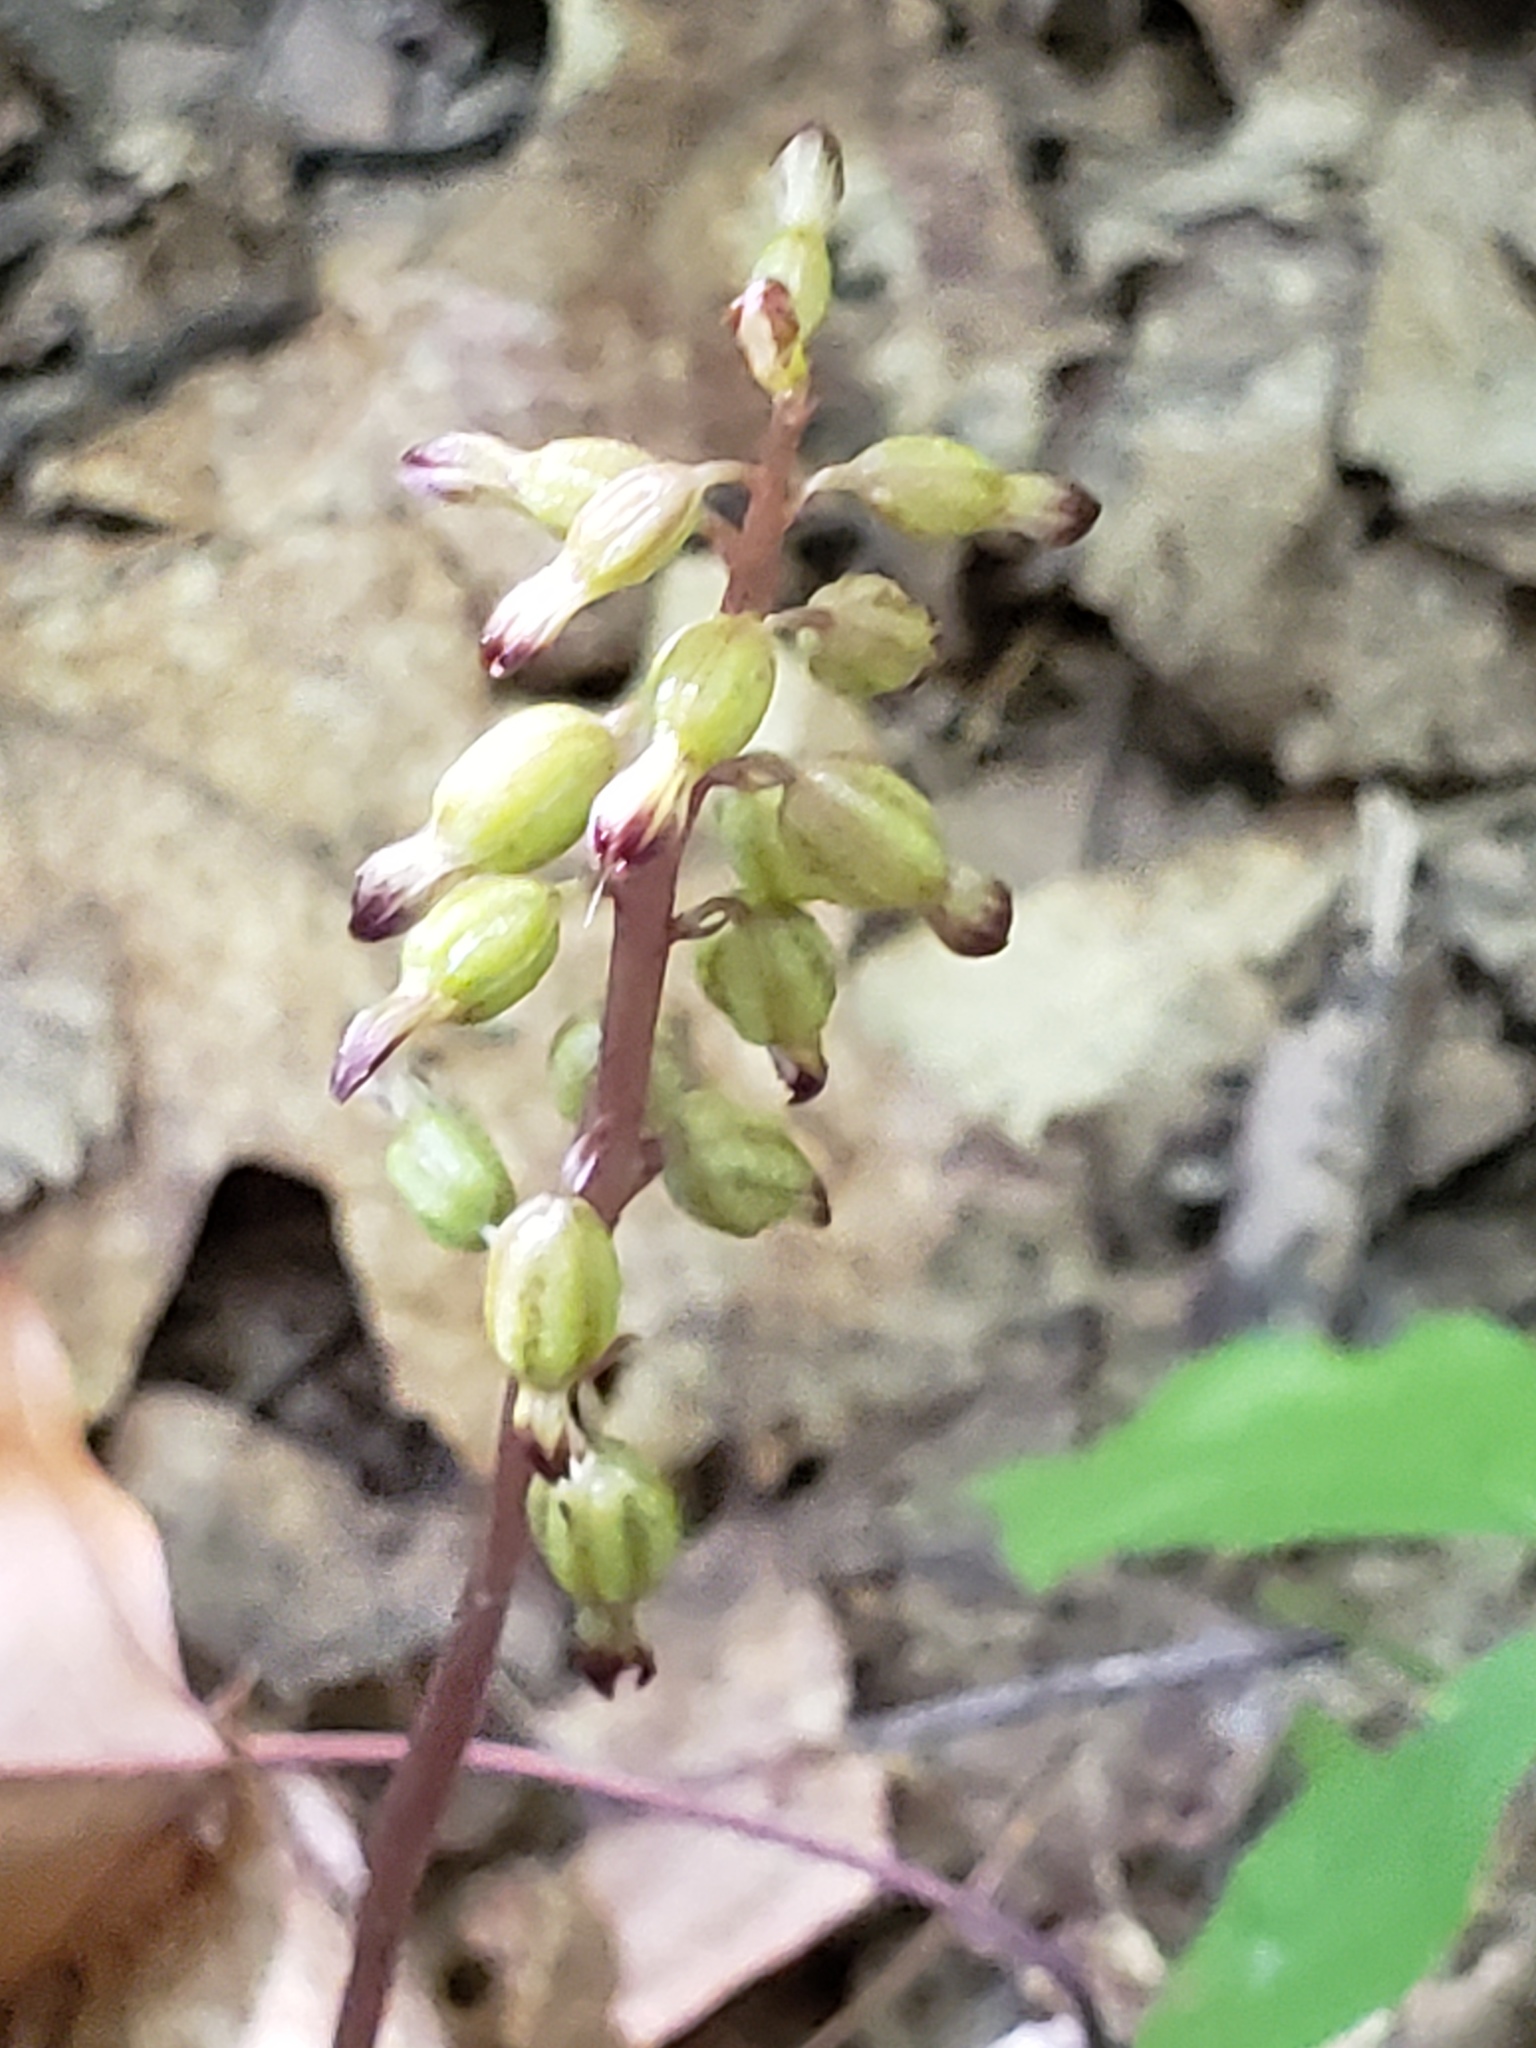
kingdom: Plantae
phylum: Tracheophyta
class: Liliopsida
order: Asparagales
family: Orchidaceae
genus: Corallorhiza
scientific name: Corallorhiza odontorhiza
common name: Autumn coralroot
